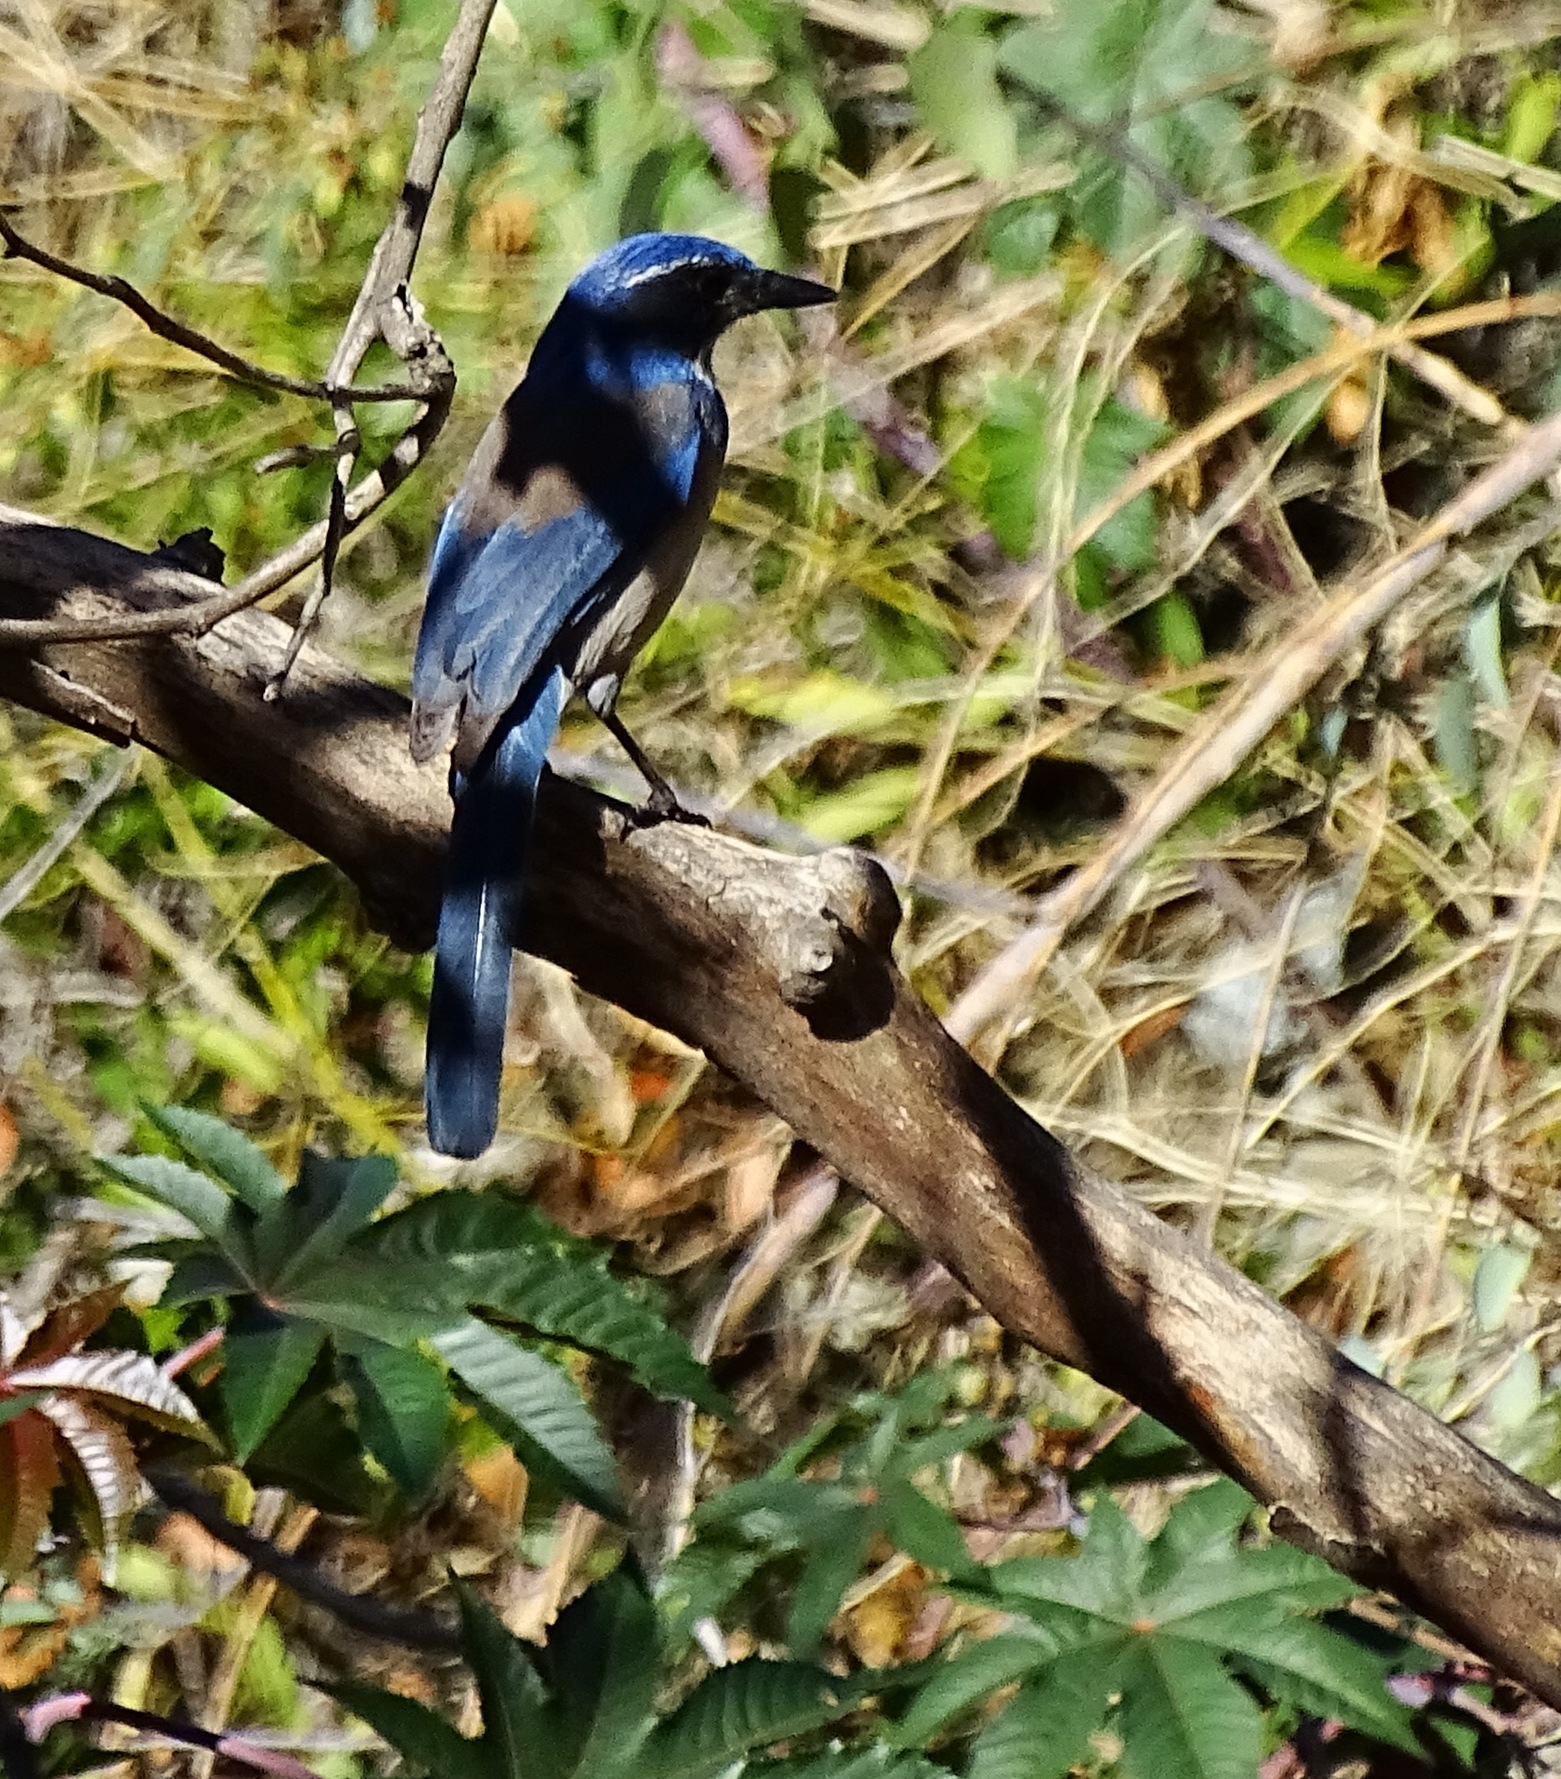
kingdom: Animalia
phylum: Chordata
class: Aves
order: Passeriformes
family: Corvidae
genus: Aphelocoma
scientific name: Aphelocoma californica
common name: California scrub-jay
